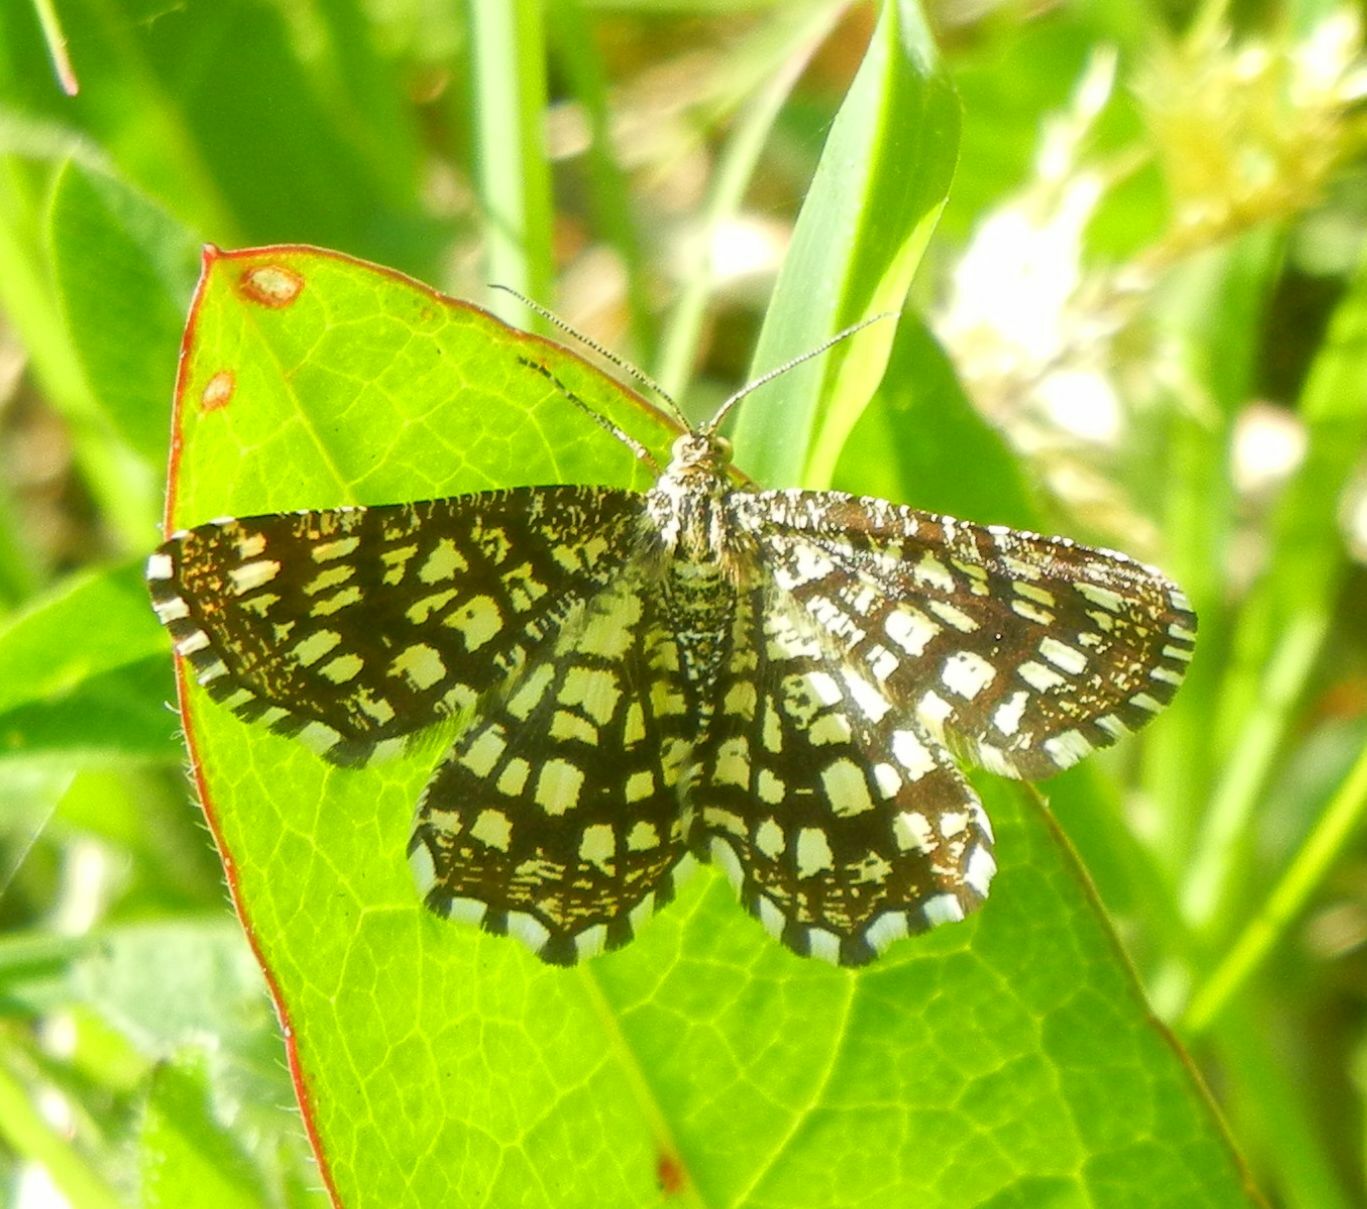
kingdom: Animalia
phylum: Arthropoda
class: Insecta
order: Lepidoptera
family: Geometridae
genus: Chiasmia
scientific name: Chiasmia clathrata
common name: Latticed heath
